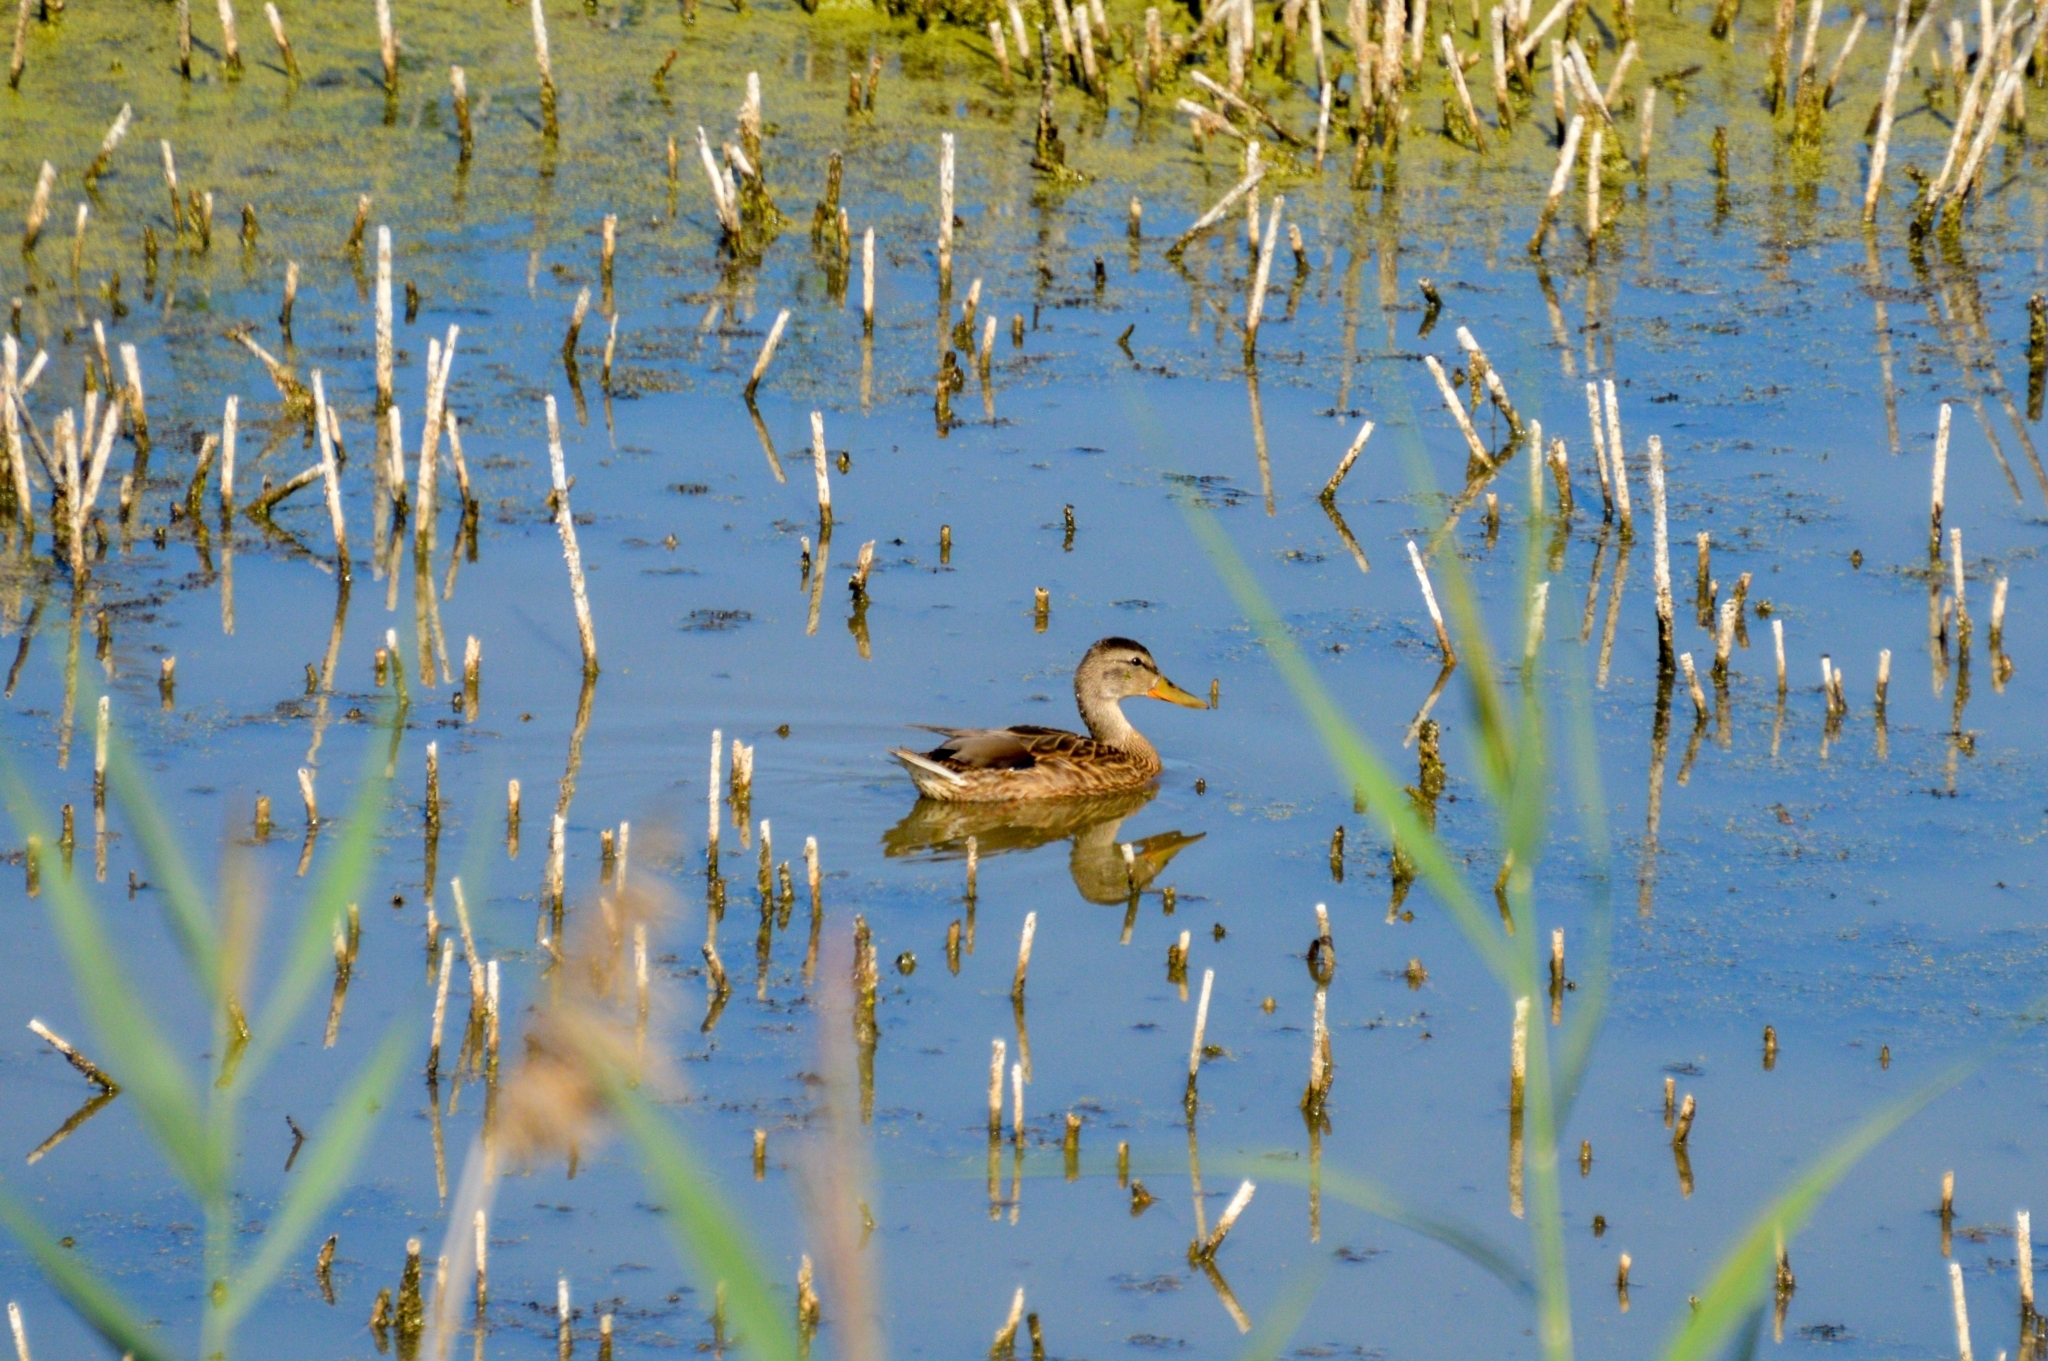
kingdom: Animalia
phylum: Chordata
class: Aves
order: Anseriformes
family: Anatidae
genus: Anas
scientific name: Anas platyrhynchos
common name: Mallard
